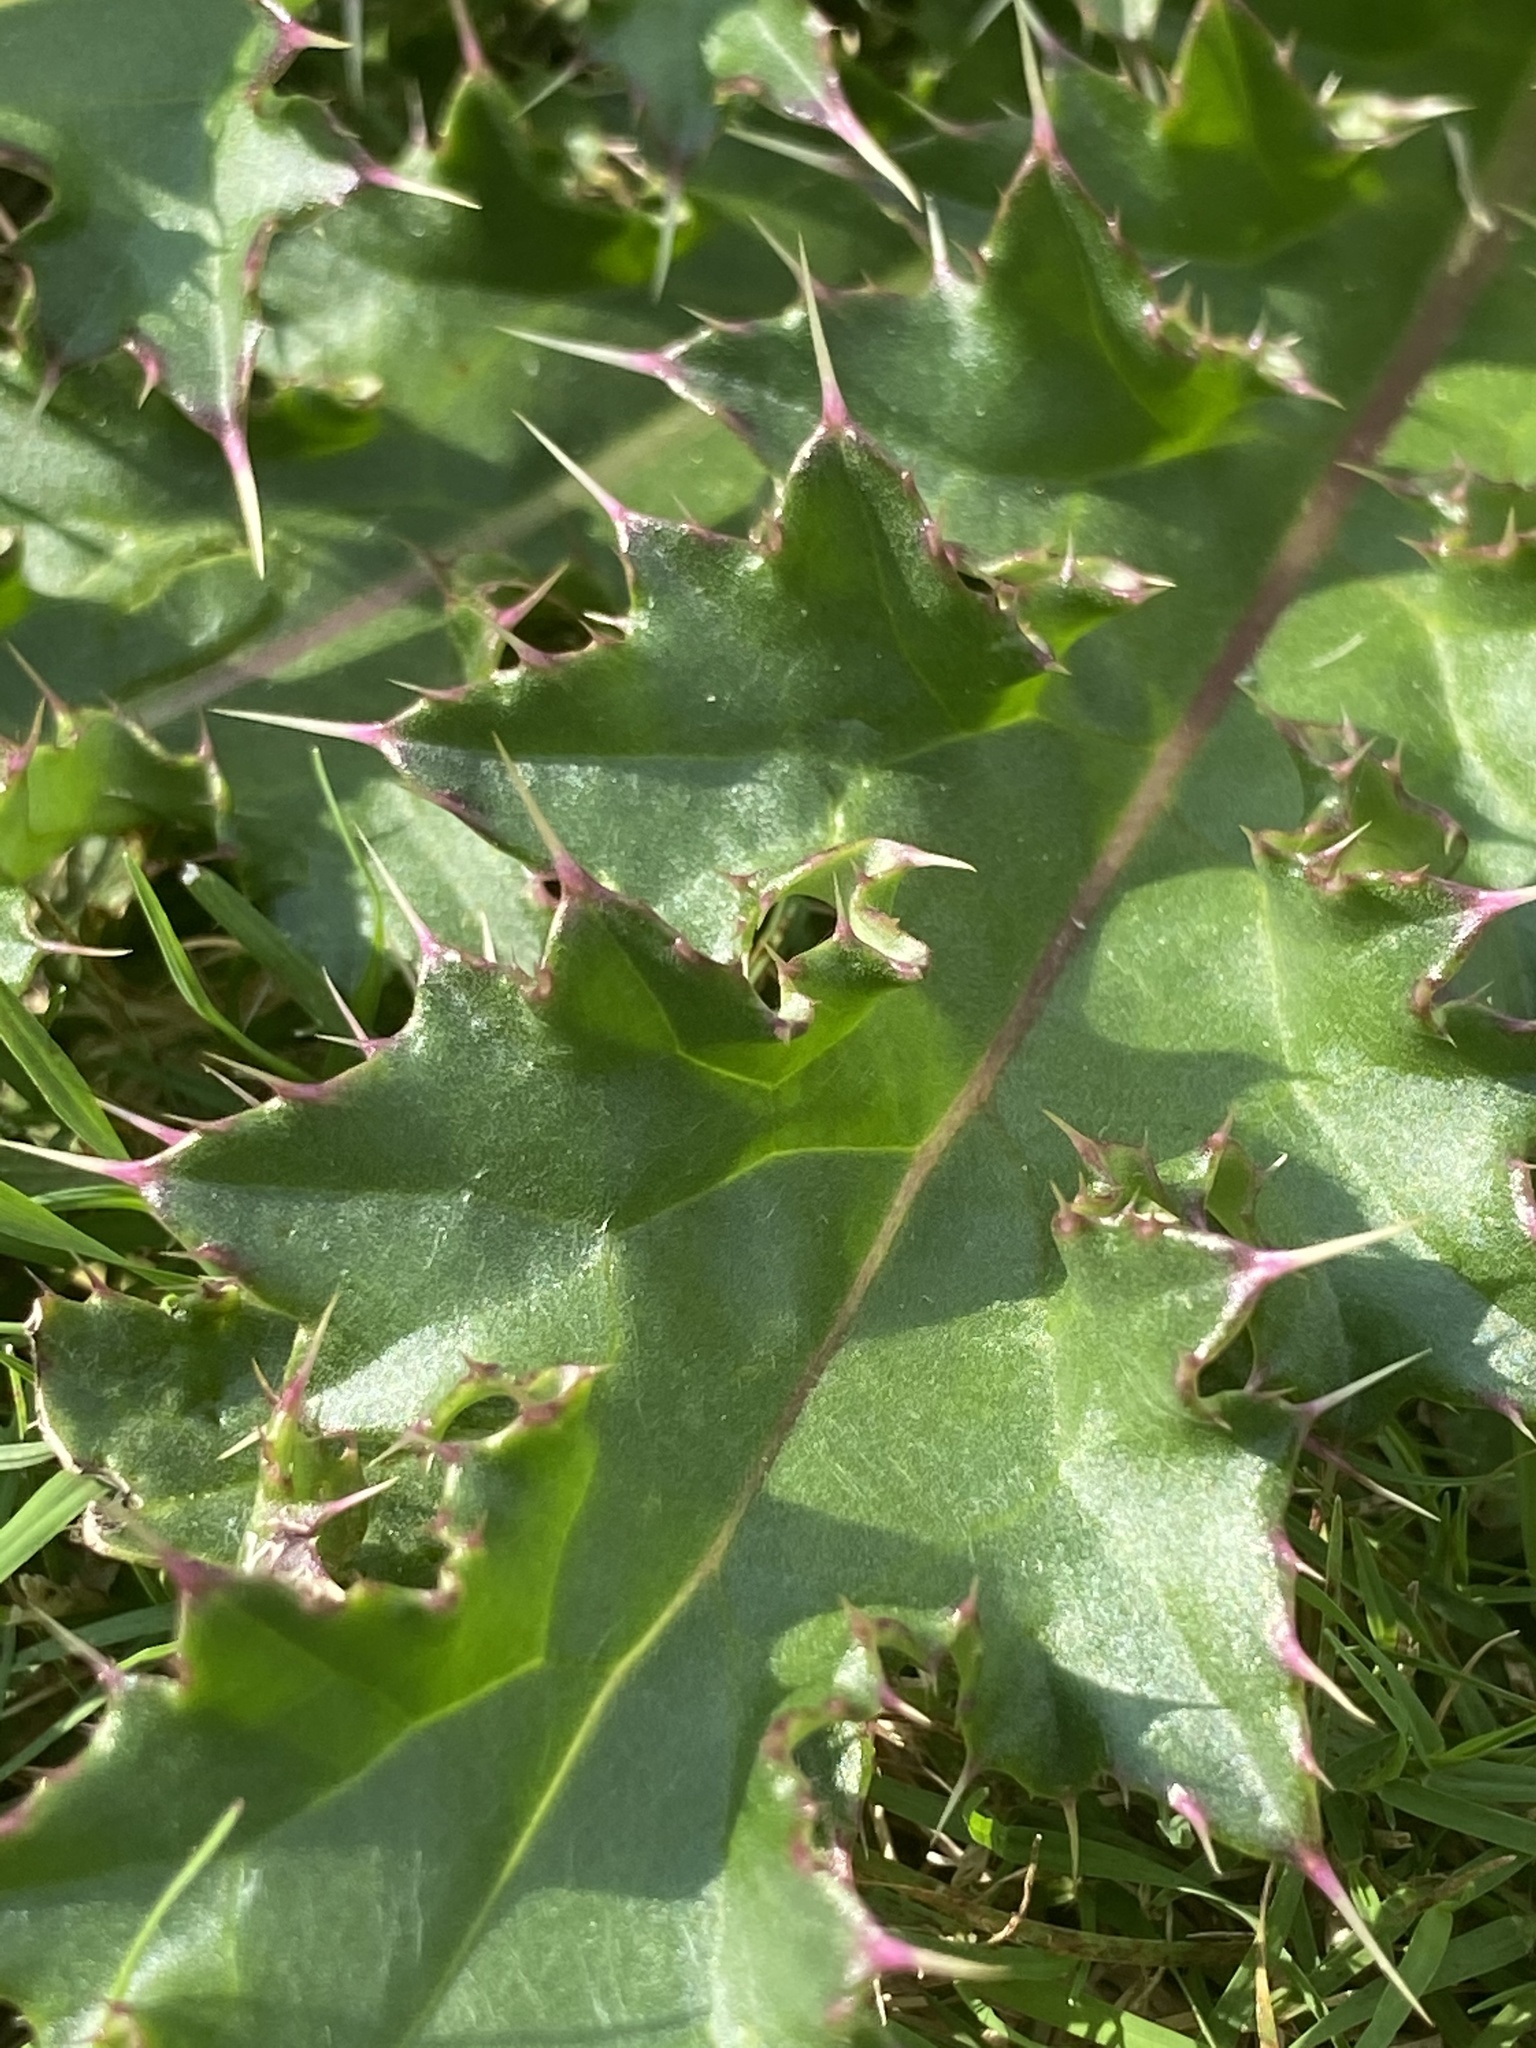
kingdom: Plantae
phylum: Tracheophyta
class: Magnoliopsida
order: Asterales
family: Asteraceae
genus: Cirsium
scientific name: Cirsium horridulum
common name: Bristly thistle
